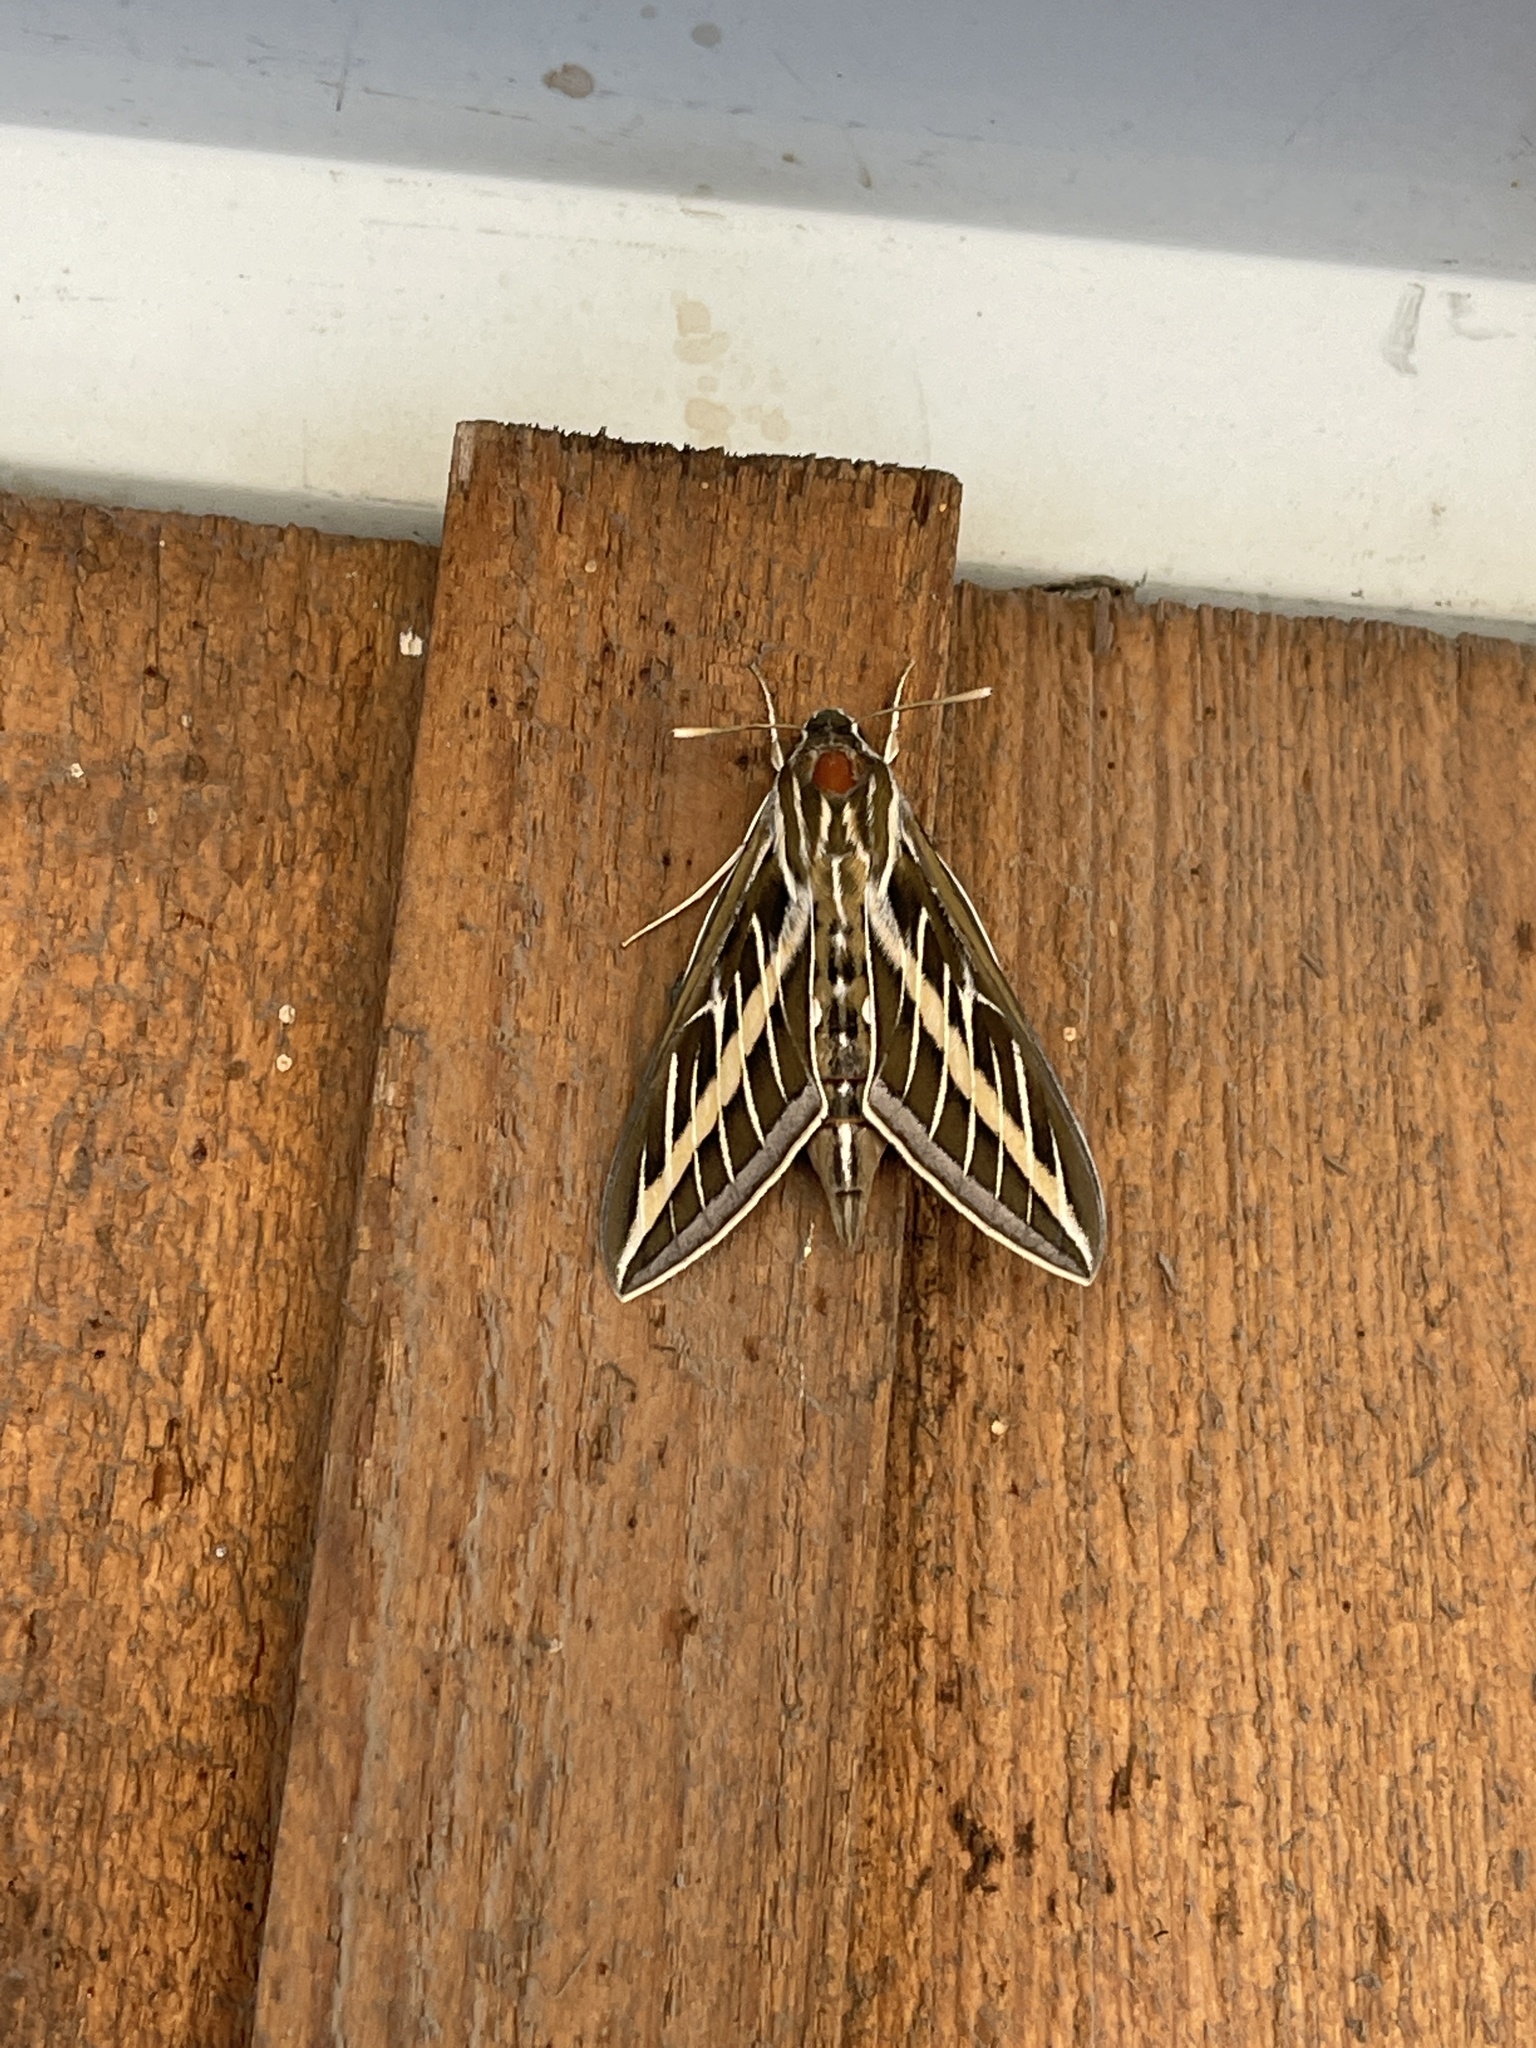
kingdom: Animalia
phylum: Arthropoda
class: Insecta
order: Lepidoptera
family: Sphingidae
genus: Hyles
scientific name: Hyles lineata
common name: White-lined sphinx
